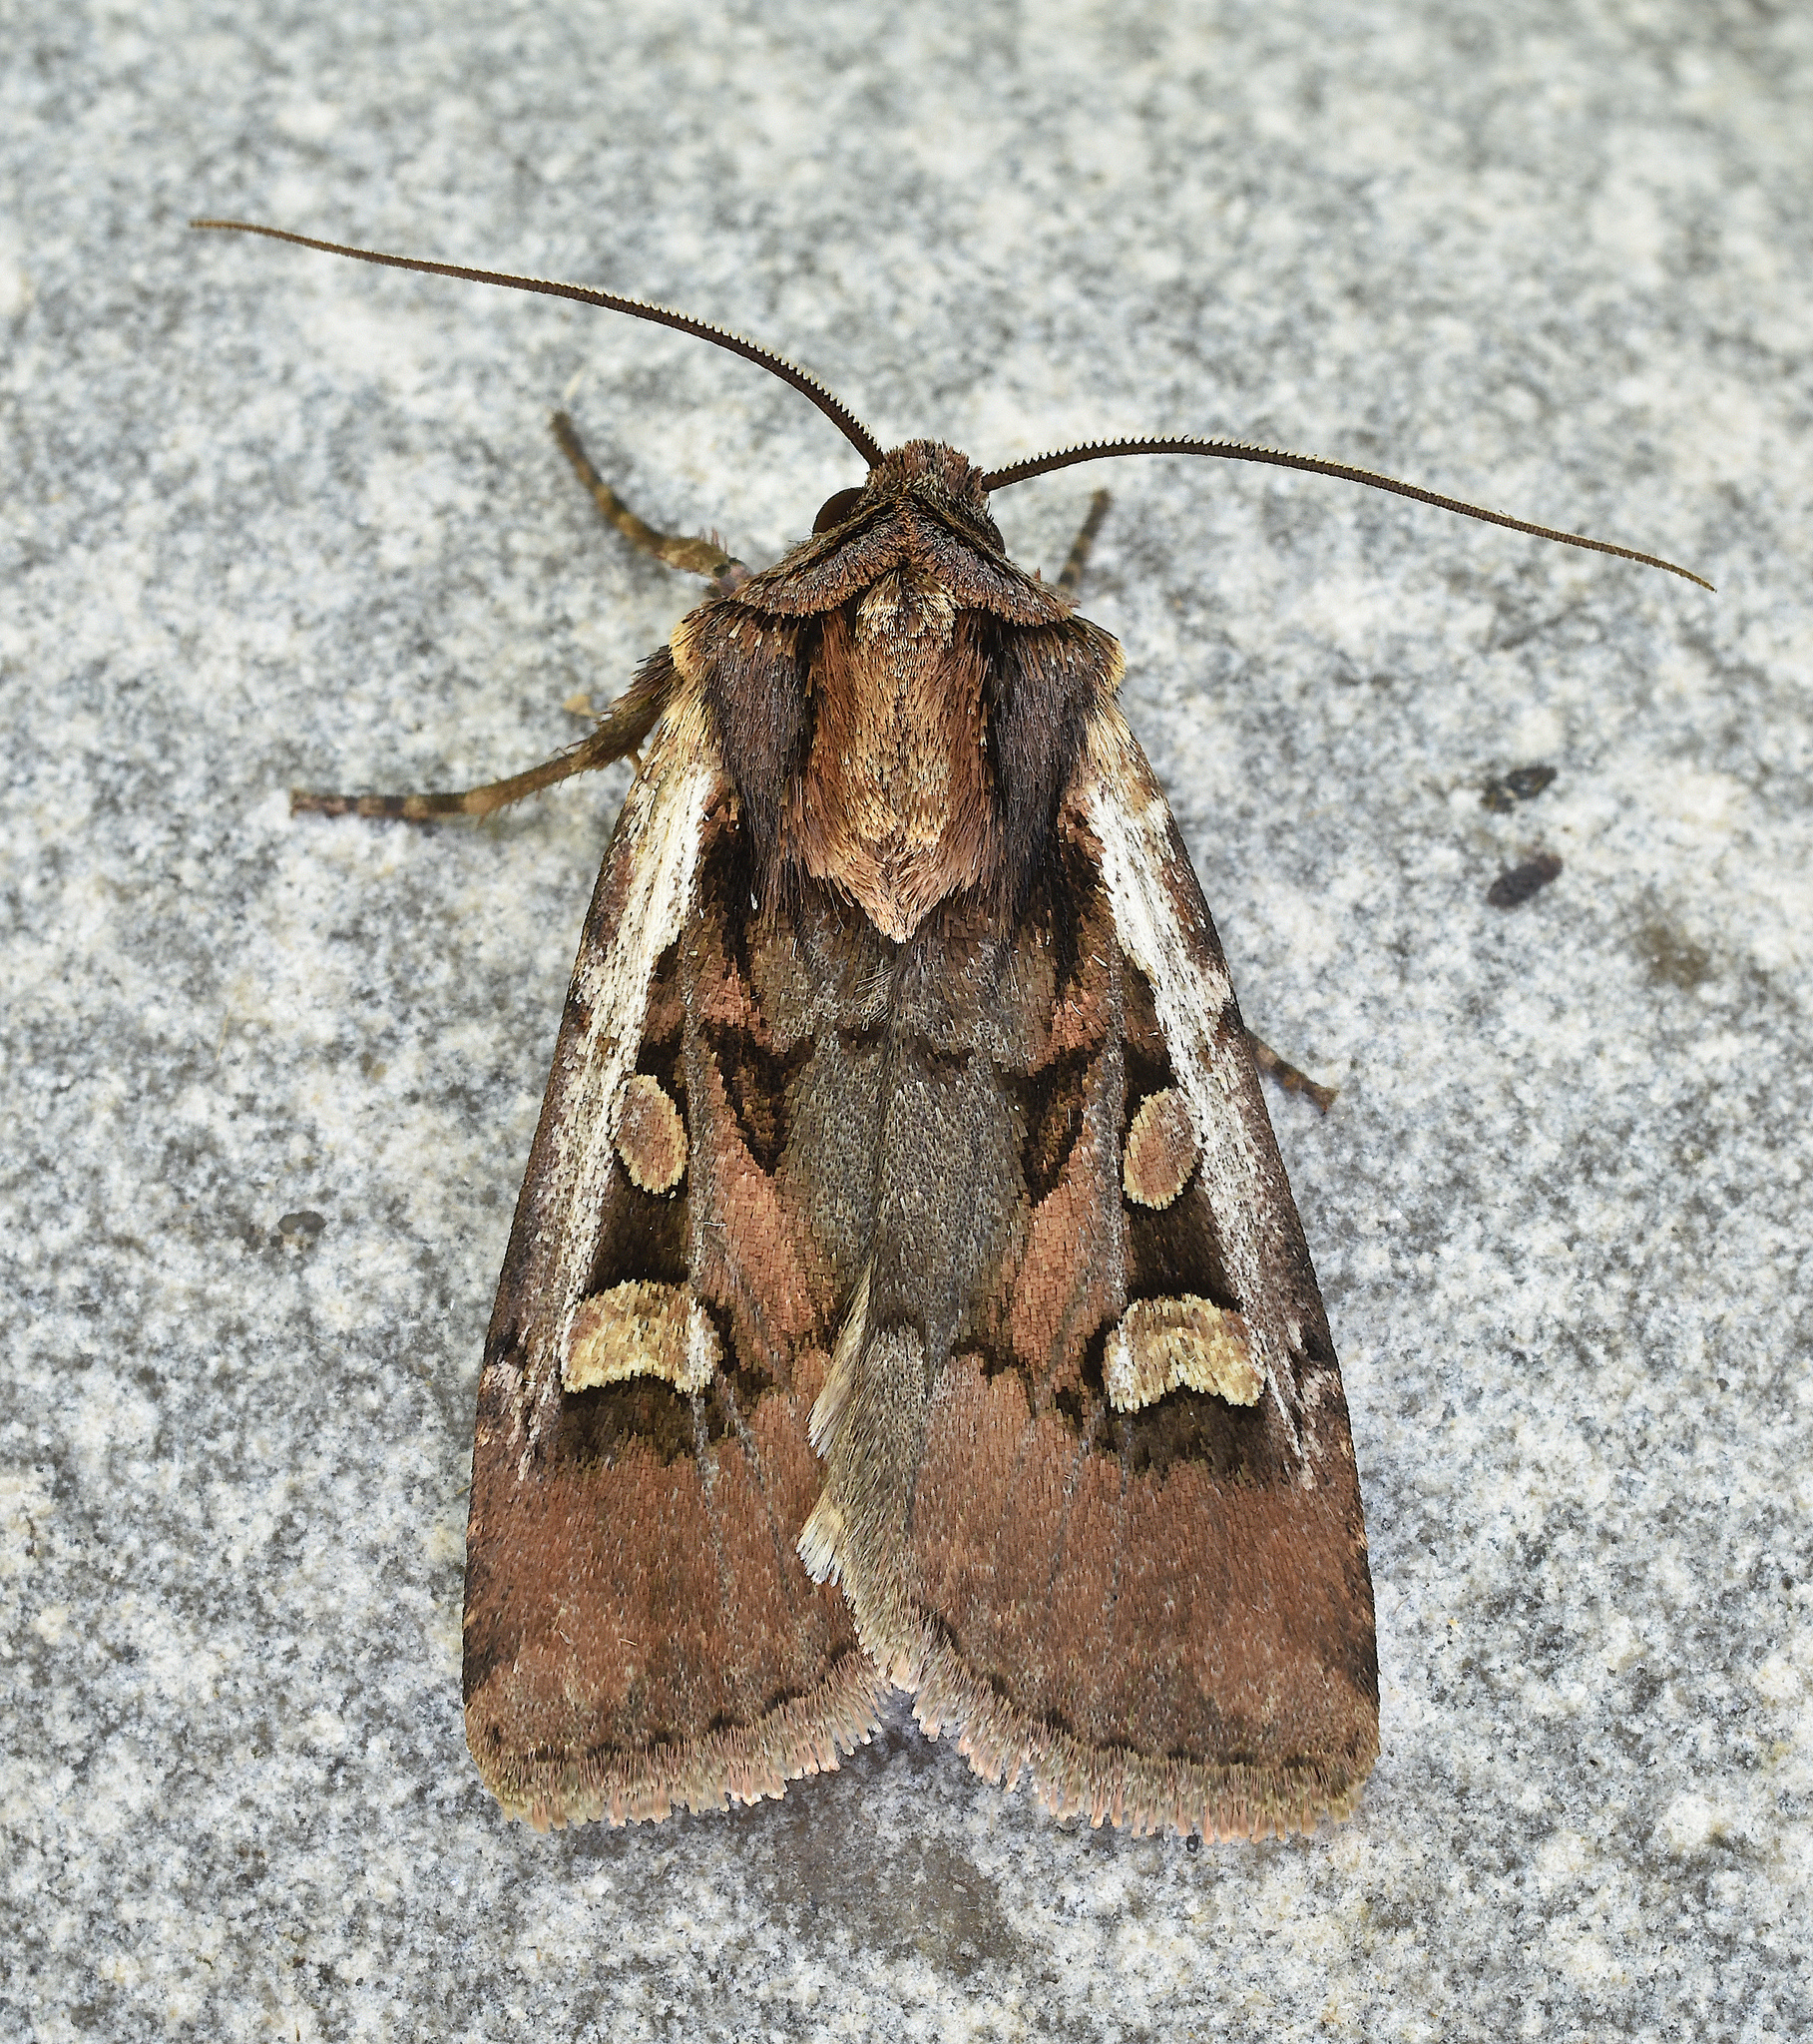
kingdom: Animalia
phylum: Arthropoda
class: Insecta
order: Lepidoptera
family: Noctuidae
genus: Euxoa
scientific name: Euxoa obeliscoides
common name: Obelisk dart moth
